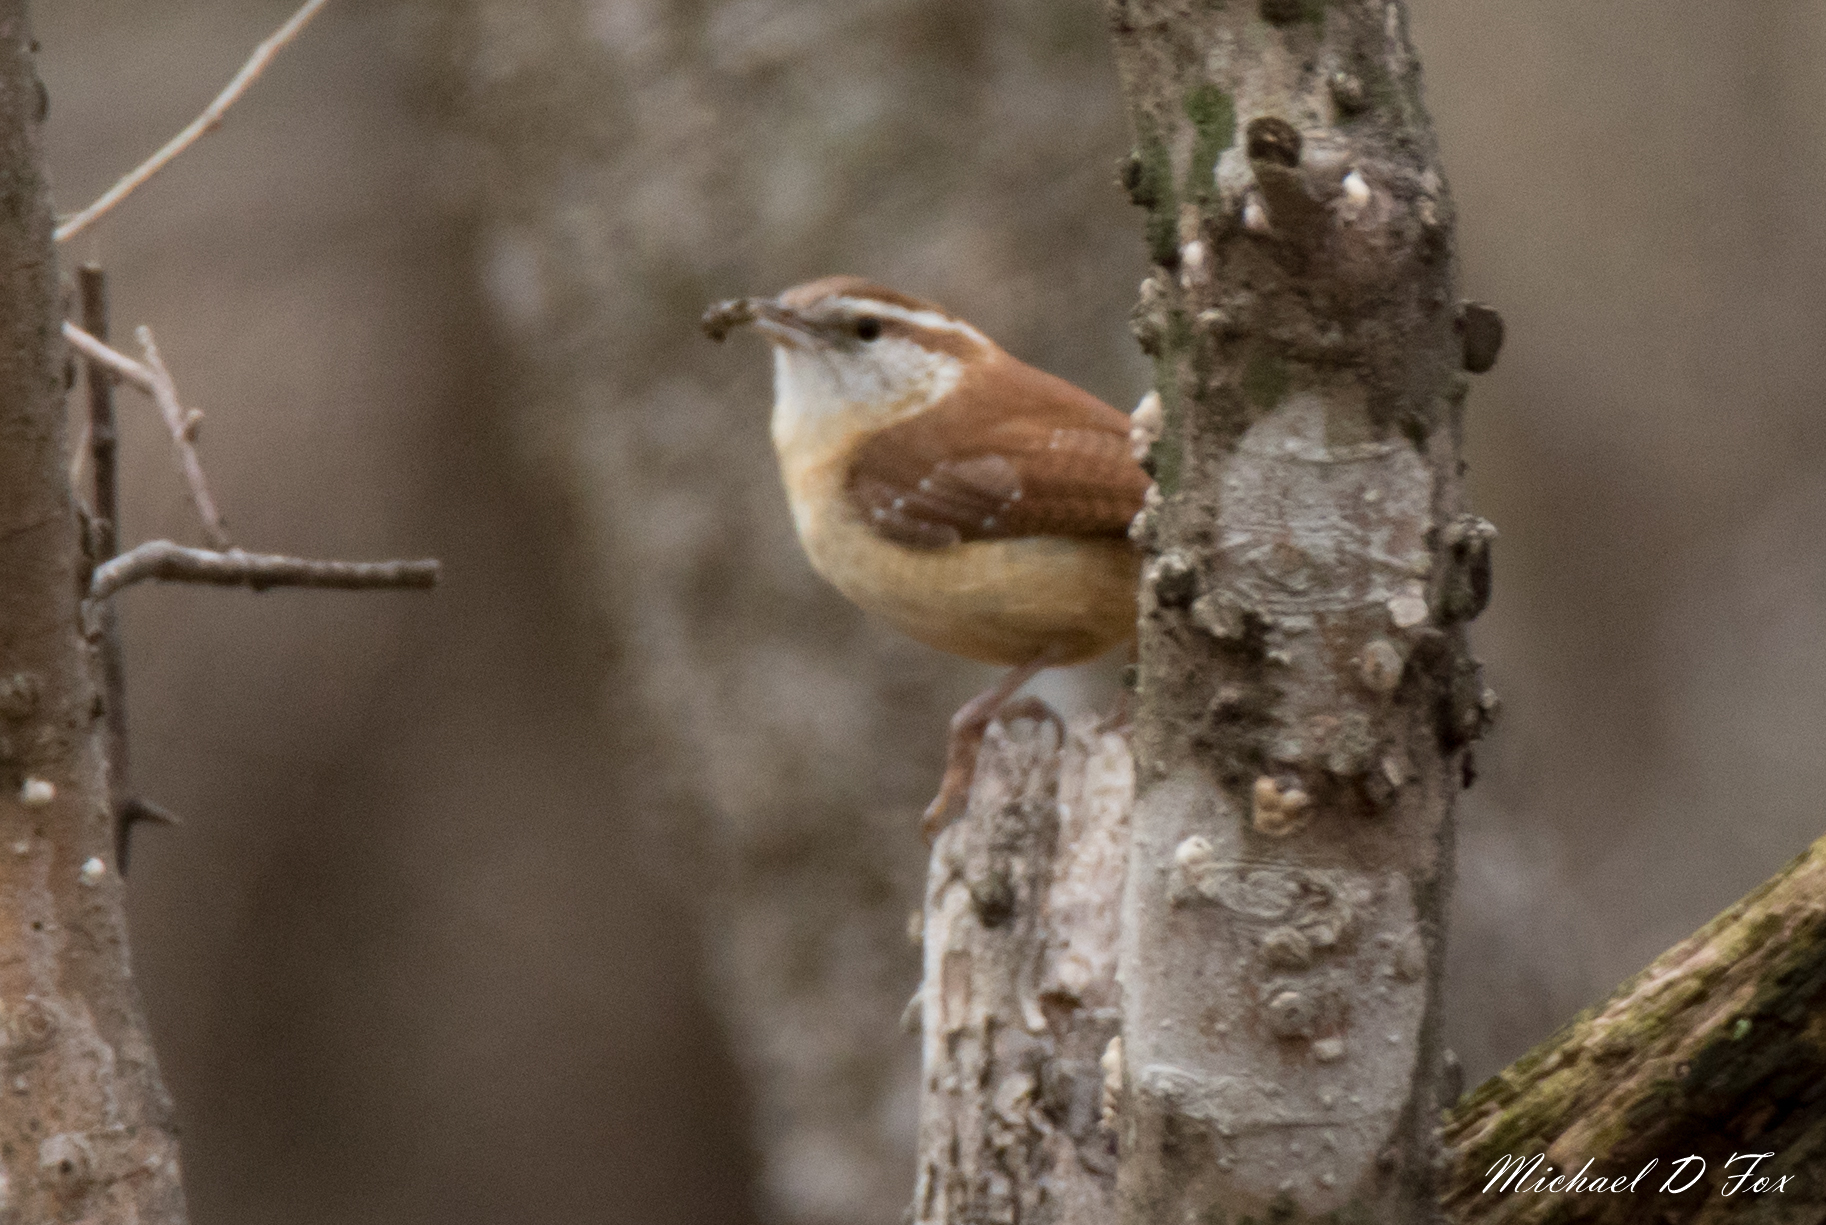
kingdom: Animalia
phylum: Chordata
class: Aves
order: Passeriformes
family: Troglodytidae
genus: Thryothorus
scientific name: Thryothorus ludovicianus
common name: Carolina wren
